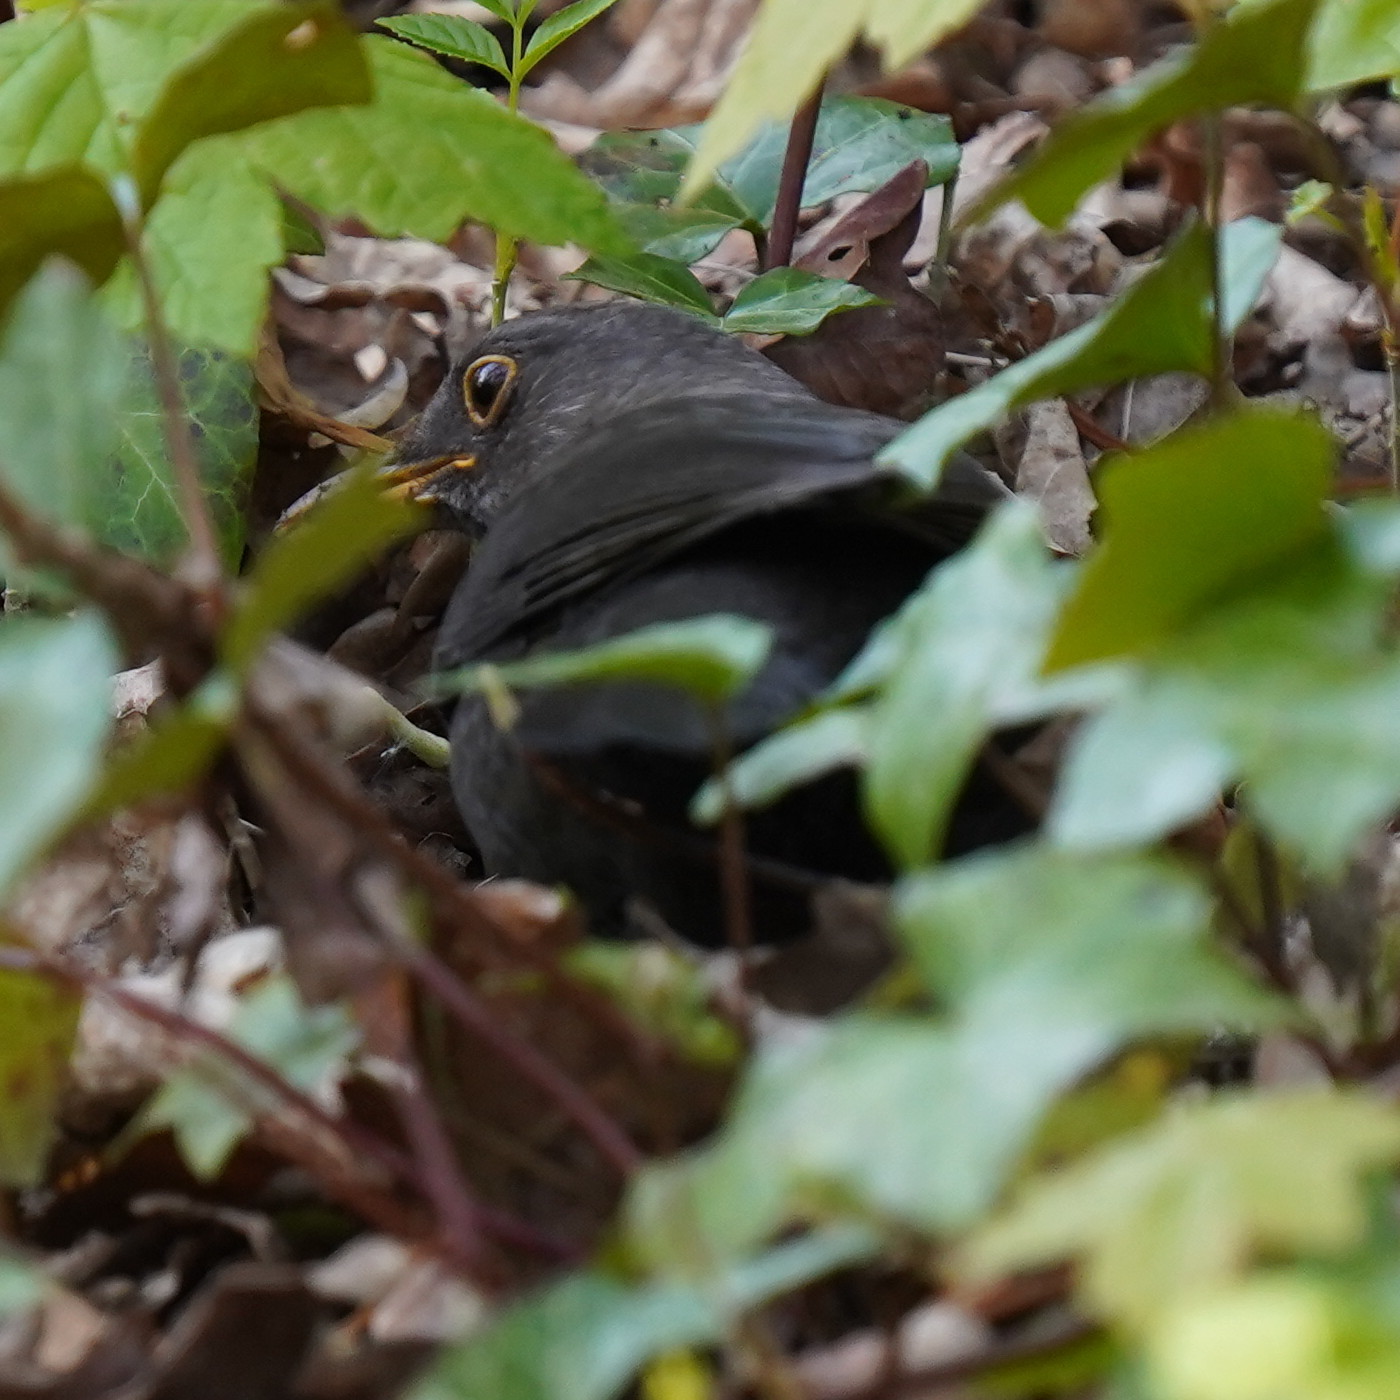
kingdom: Animalia
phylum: Chordata
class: Aves
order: Passeriformes
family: Turdidae
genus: Turdus
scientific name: Turdus merula
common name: Common blackbird
